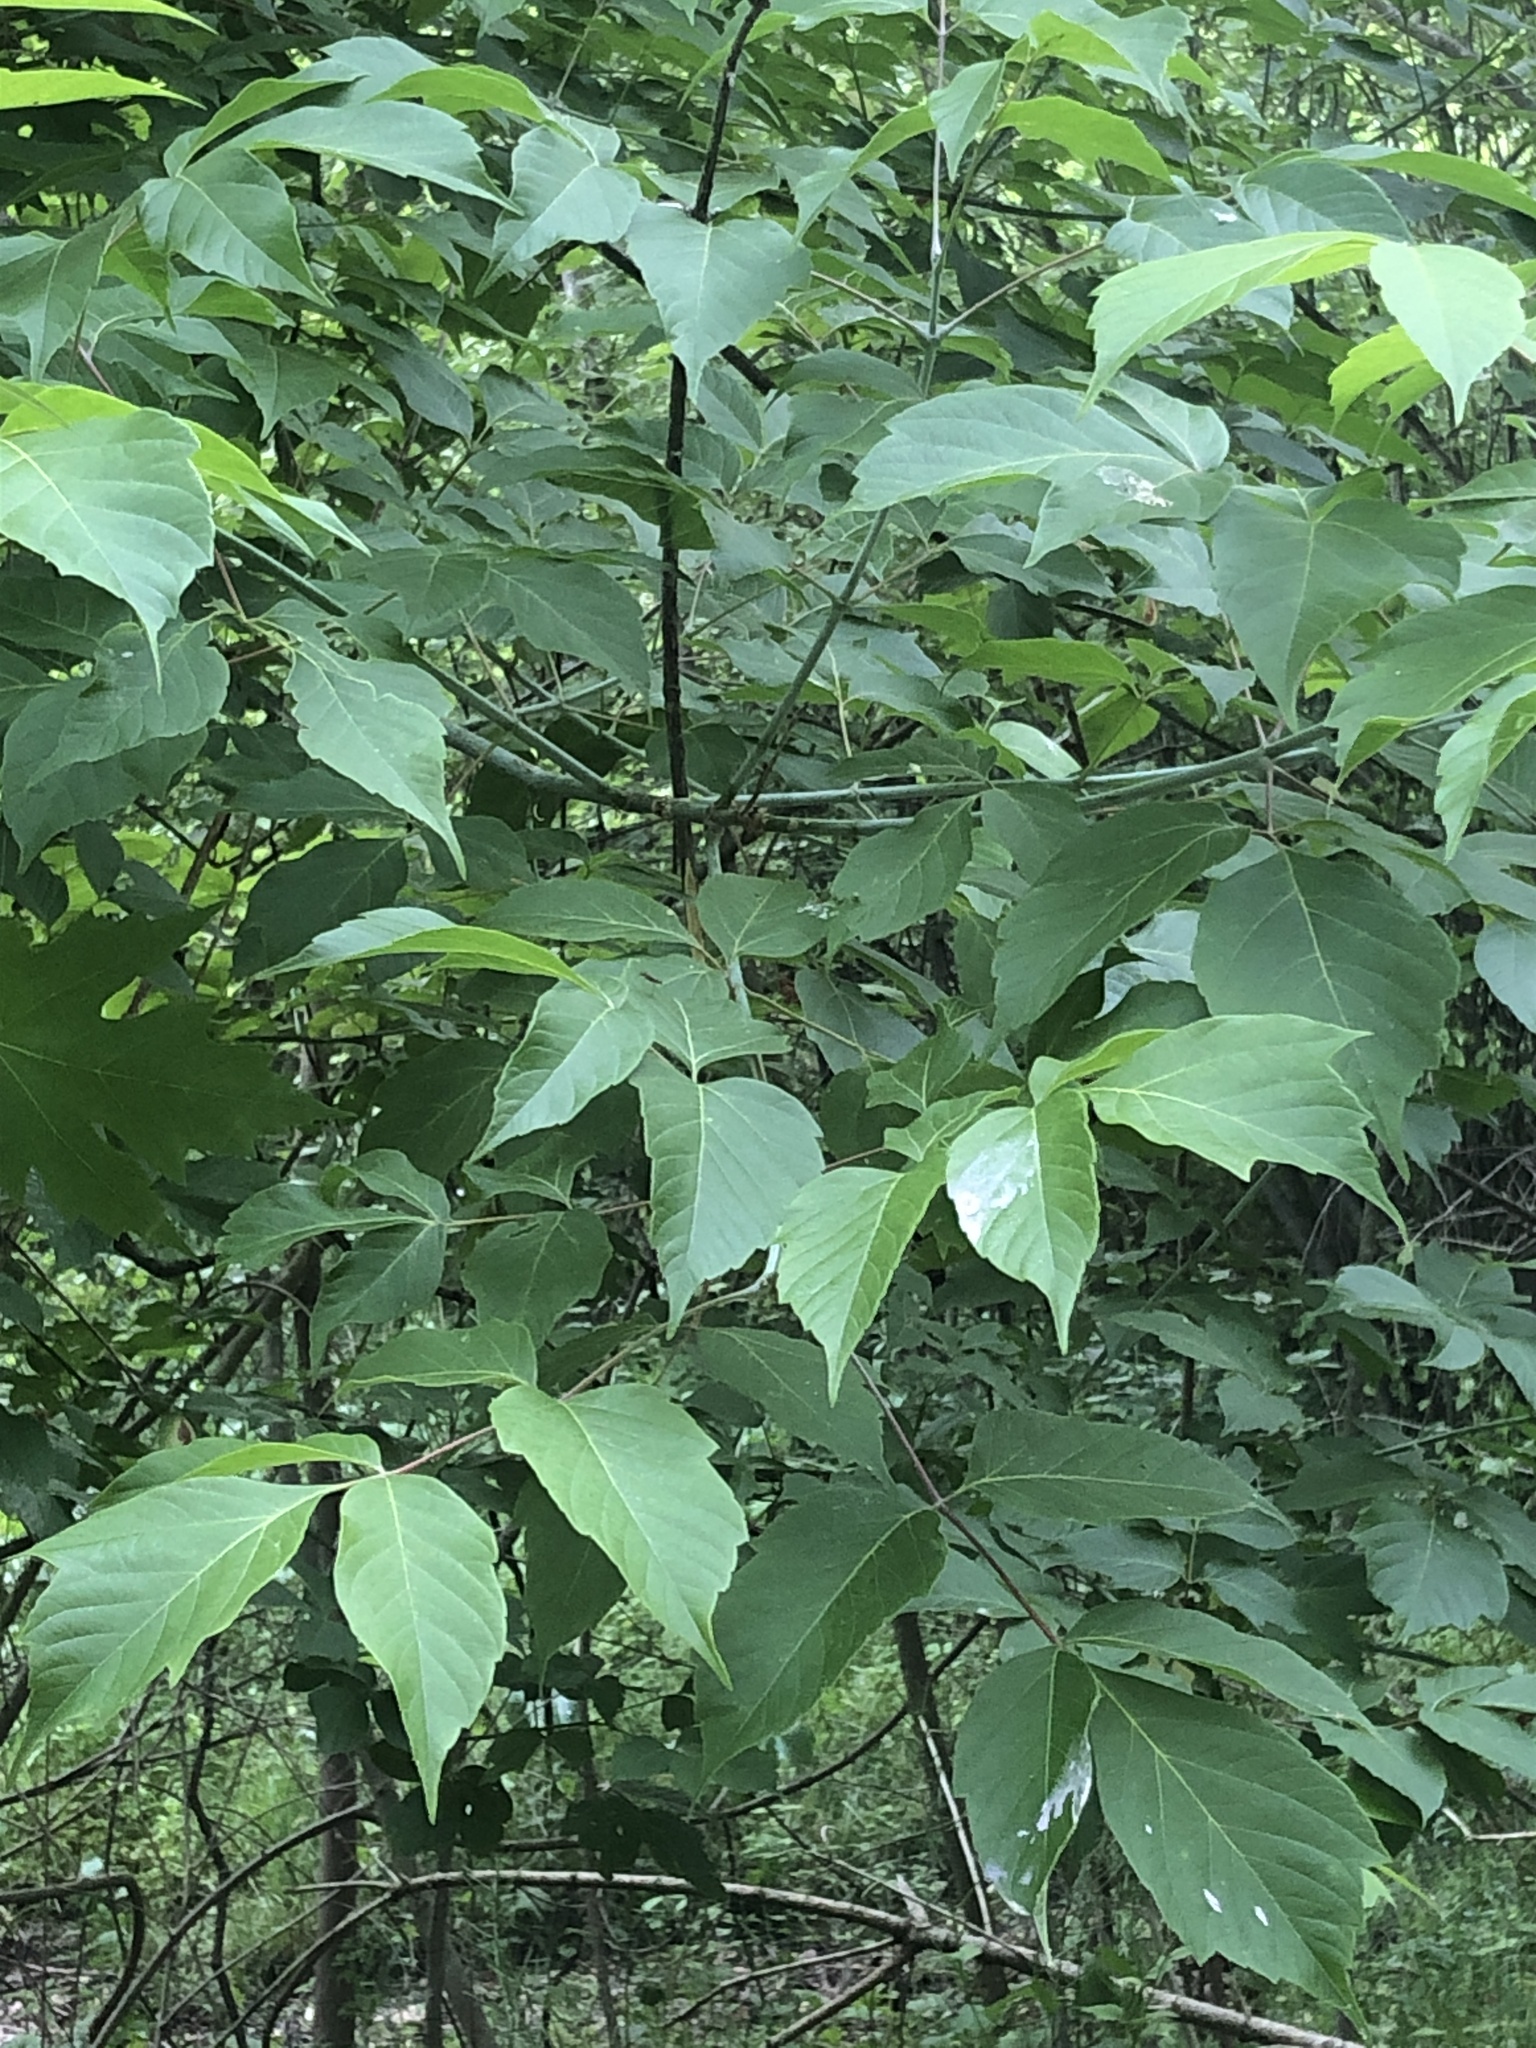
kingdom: Plantae
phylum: Tracheophyta
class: Magnoliopsida
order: Sapindales
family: Sapindaceae
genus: Acer
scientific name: Acer negundo
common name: Ashleaf maple
